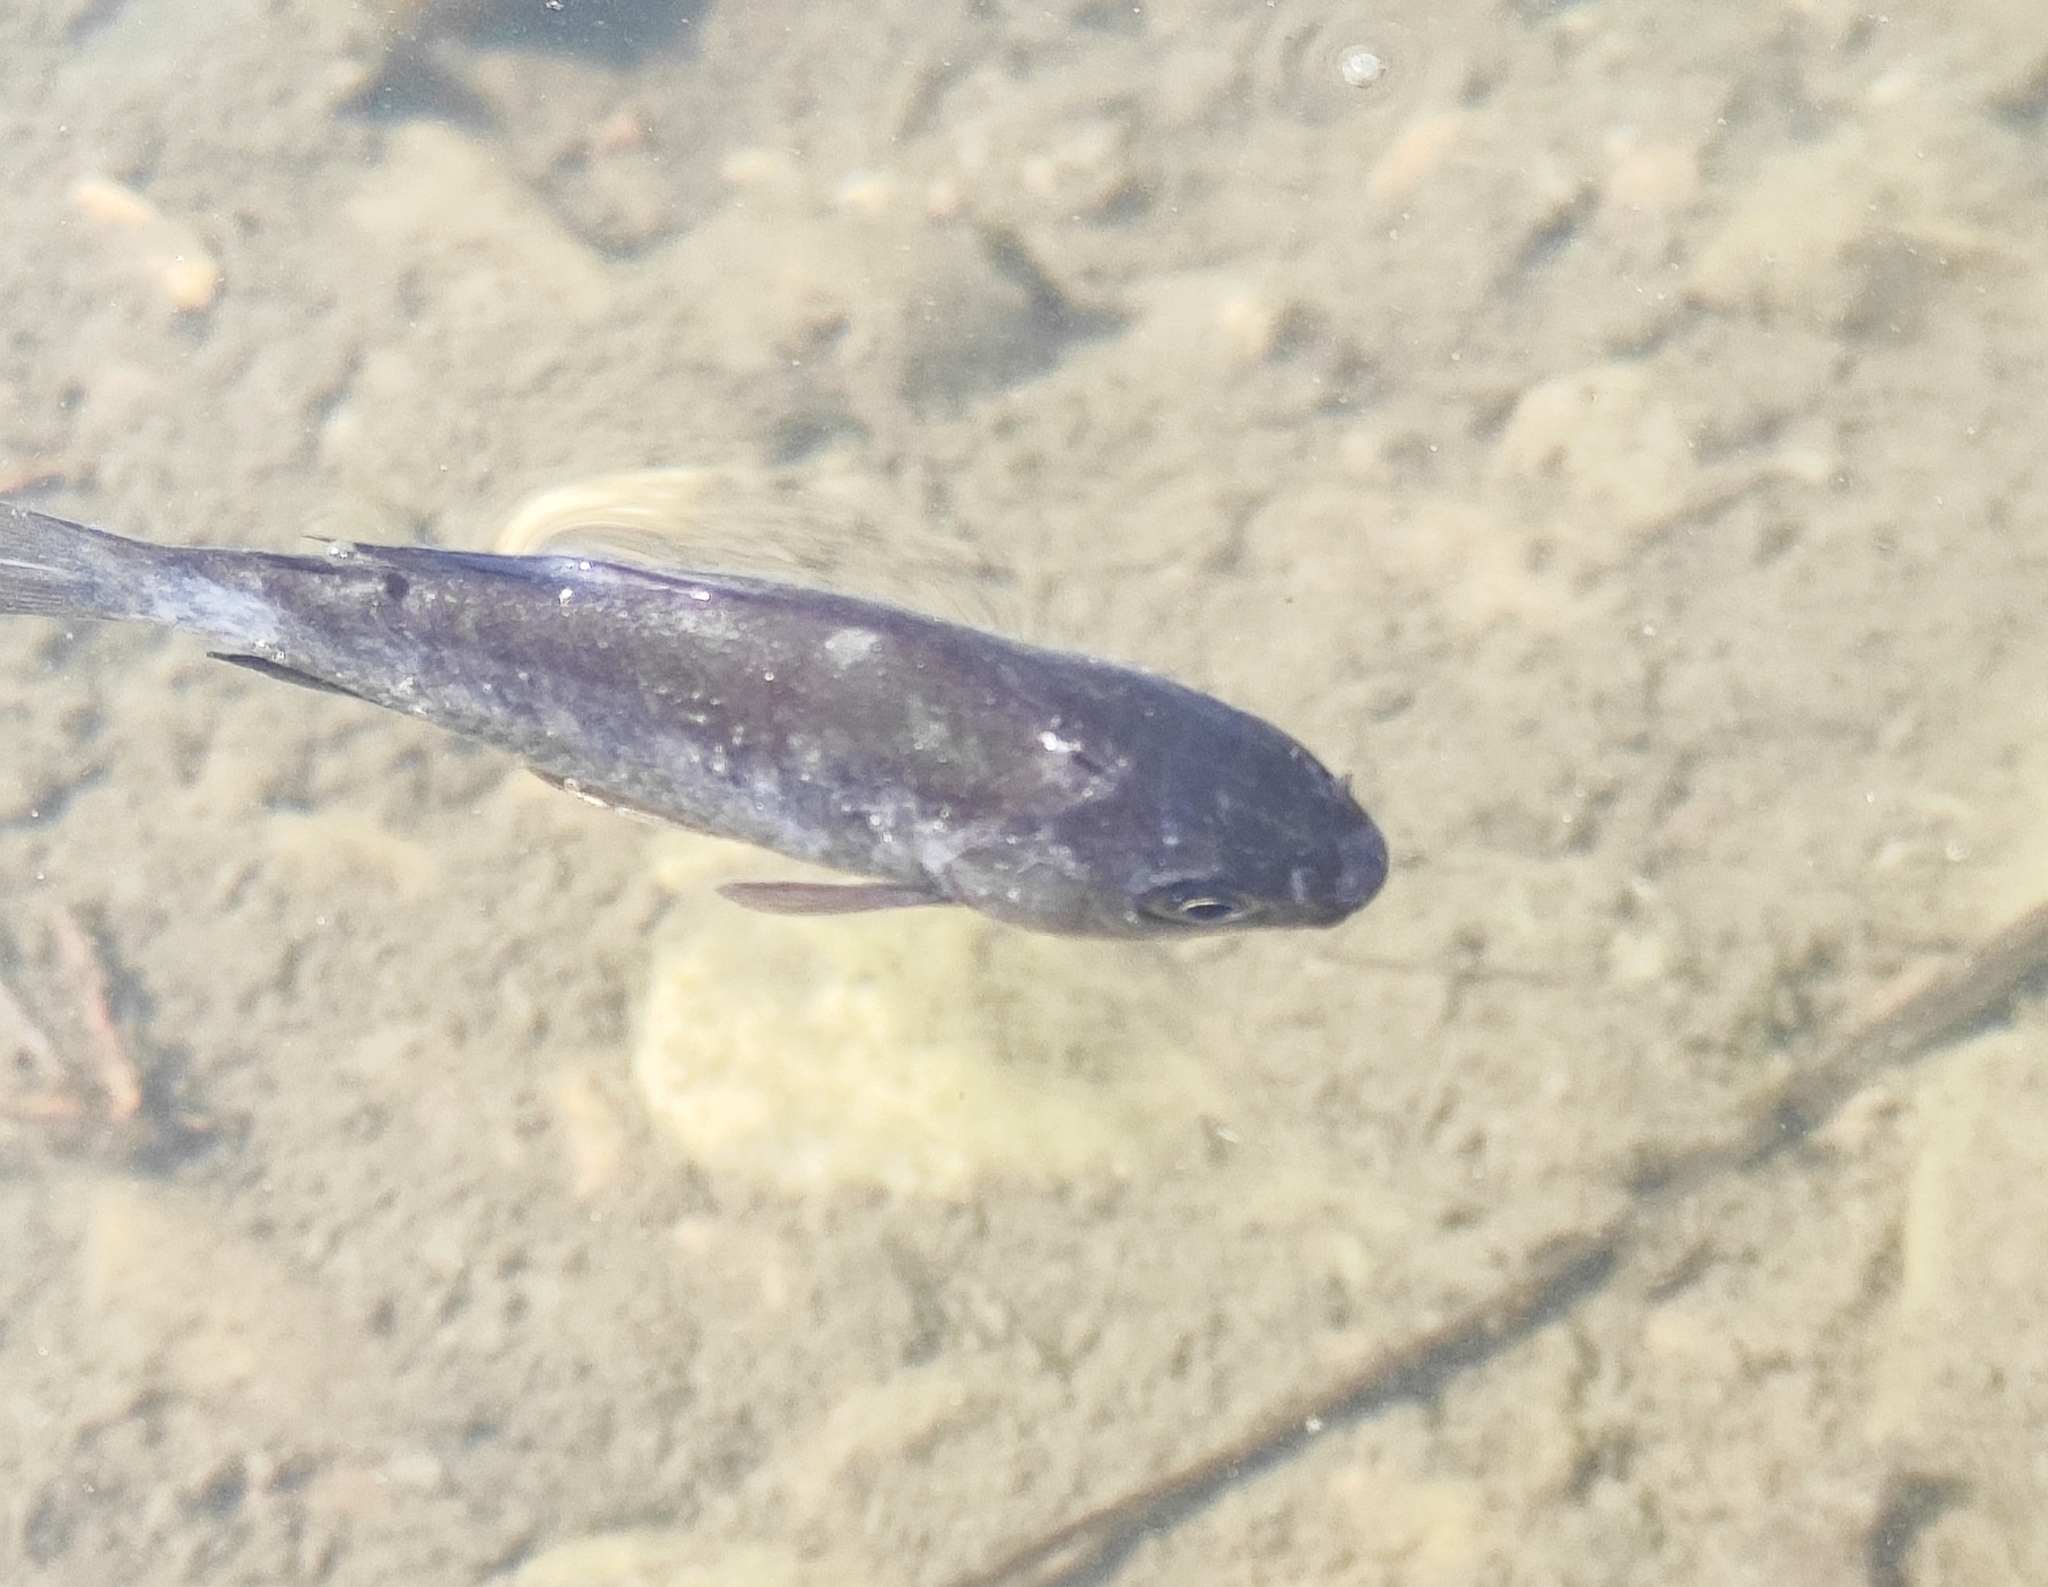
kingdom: Animalia
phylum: Chordata
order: Cypriniformes
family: Cyprinidae
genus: Carassius
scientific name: Carassius gibelio
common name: Prussian carp
